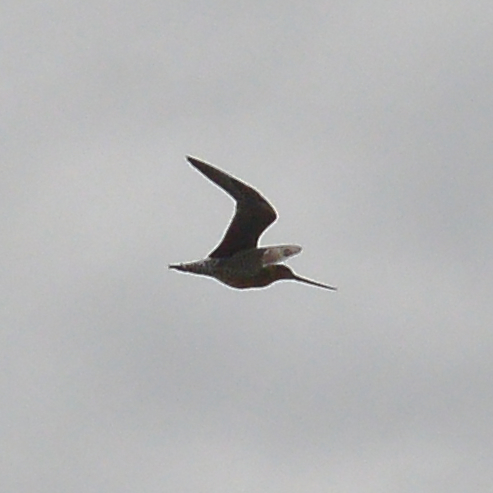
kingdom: Animalia
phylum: Chordata
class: Aves
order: Charadriiformes
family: Scolopacidae
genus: Limosa
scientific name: Limosa lapponica
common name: Bar-tailed godwit
